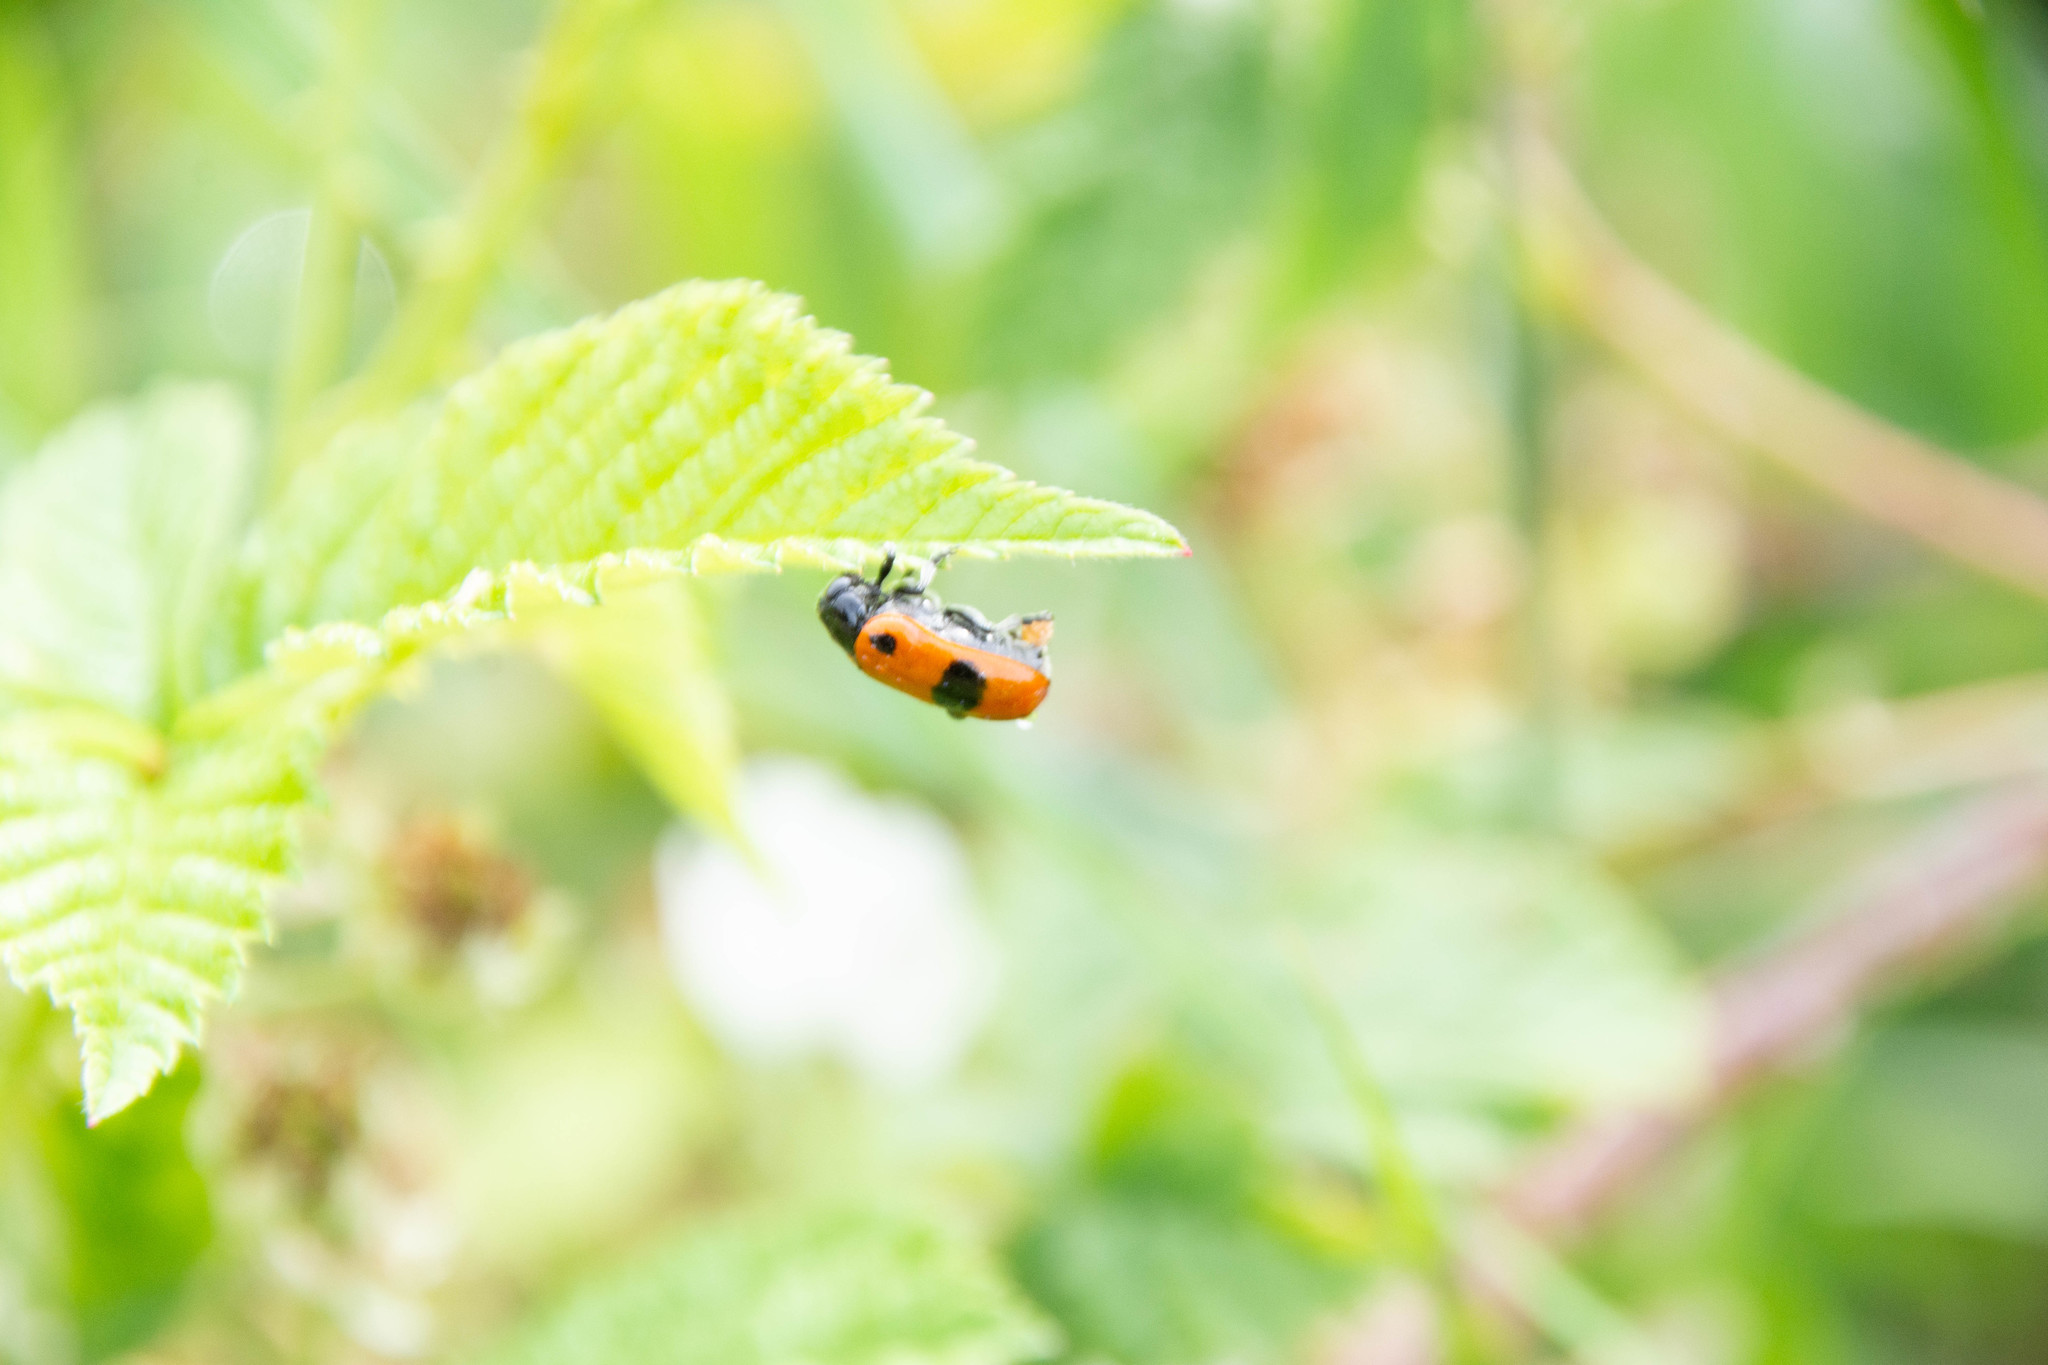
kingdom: Animalia
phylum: Arthropoda
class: Insecta
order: Coleoptera
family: Chrysomelidae
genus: Clytra
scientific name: Clytra laeviuscula
